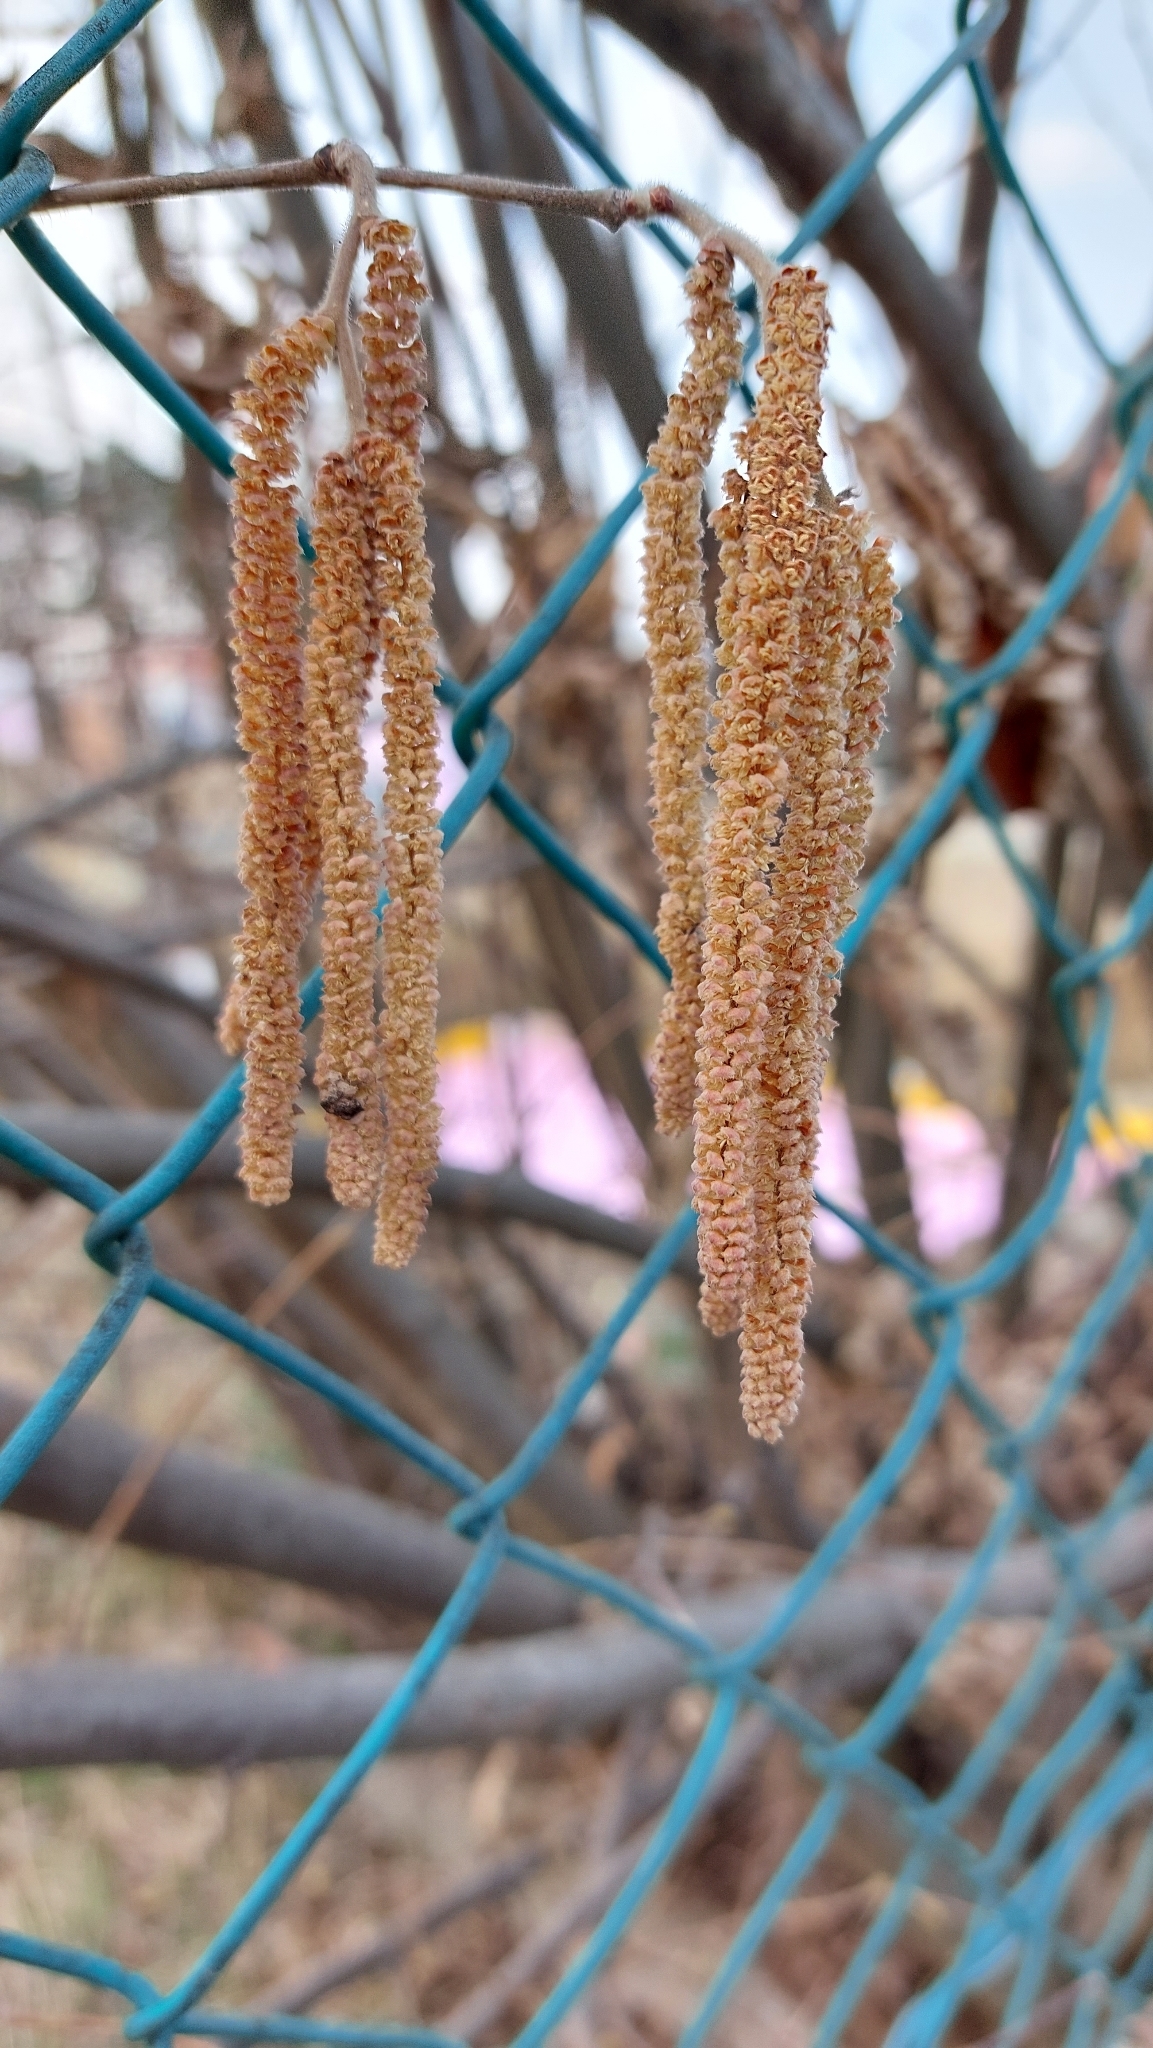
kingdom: Plantae
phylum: Tracheophyta
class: Magnoliopsida
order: Fagales
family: Betulaceae
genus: Corylus
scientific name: Corylus avellana
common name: European hazel
